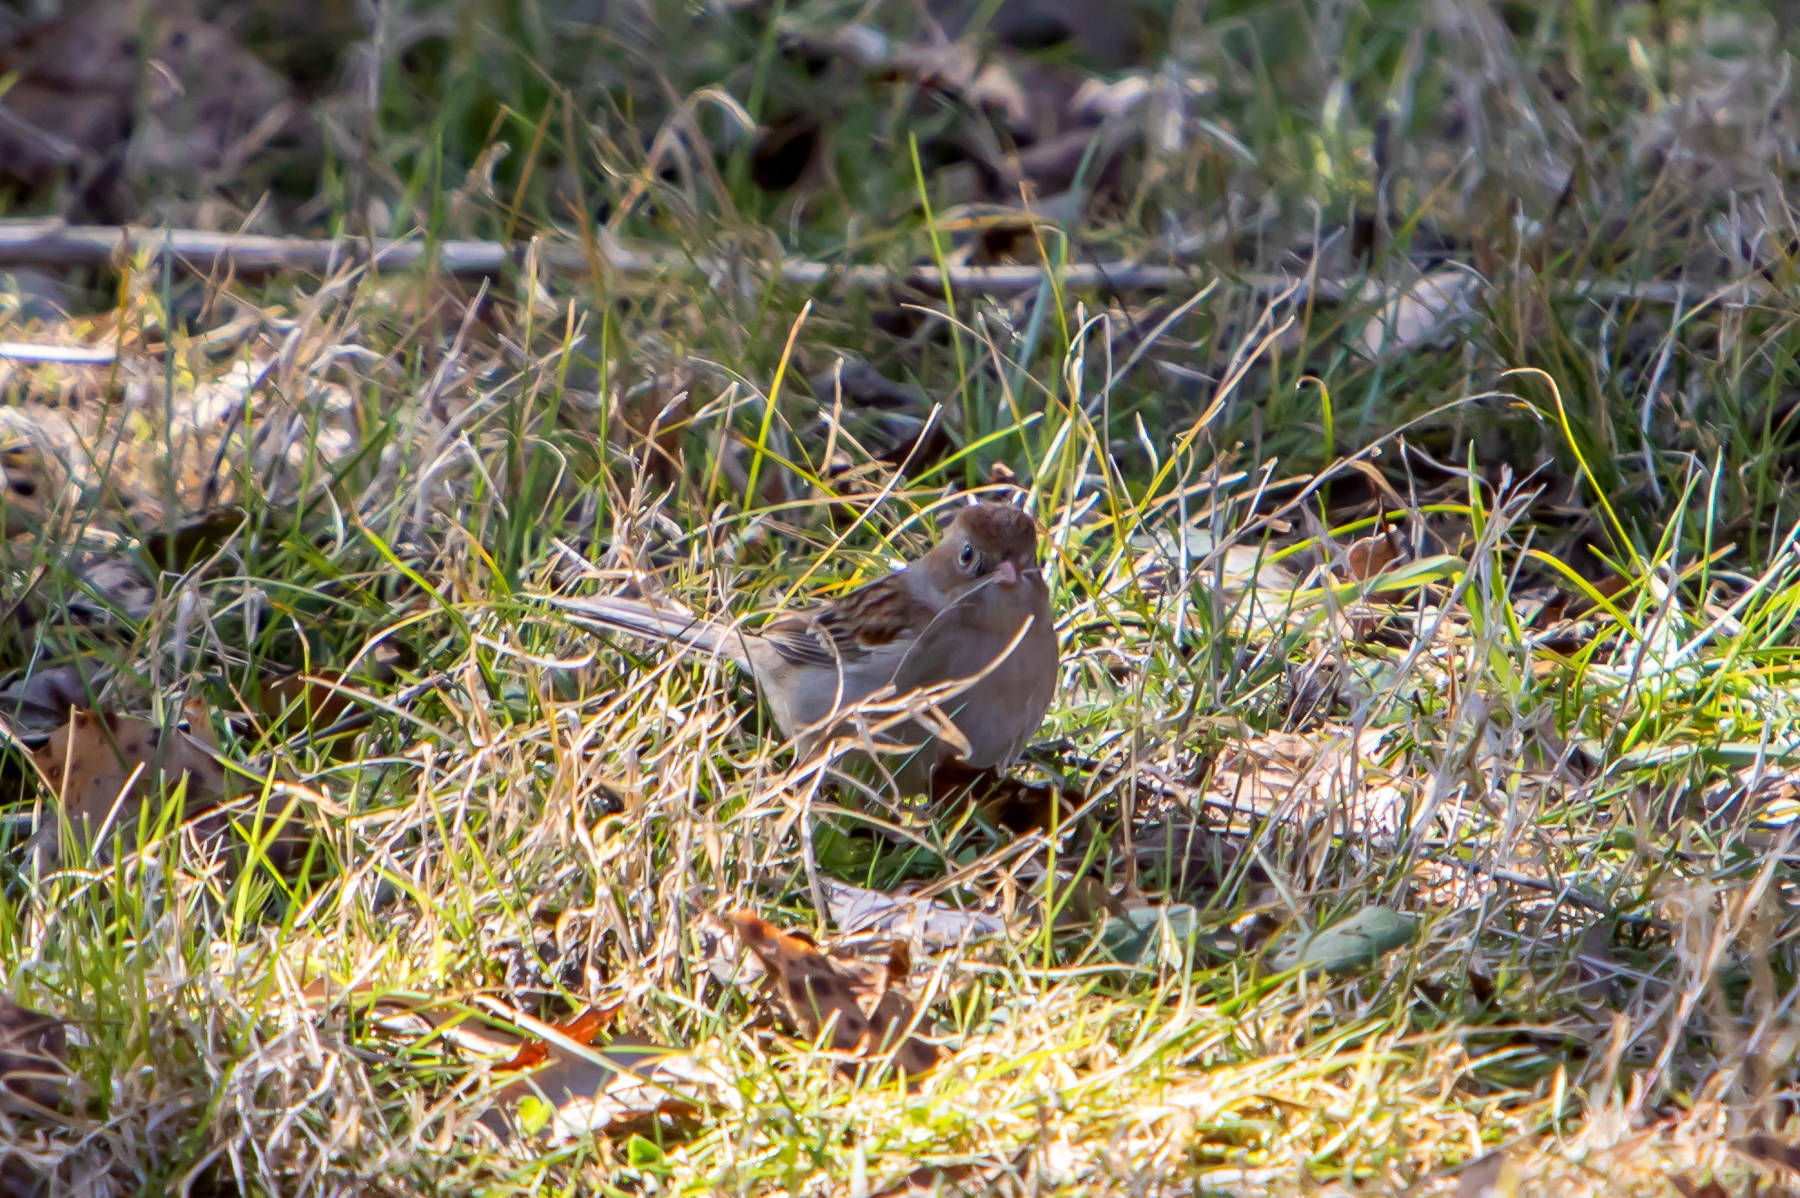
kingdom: Animalia
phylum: Chordata
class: Aves
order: Passeriformes
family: Passerellidae
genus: Spizella
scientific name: Spizella pusilla
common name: Field sparrow
